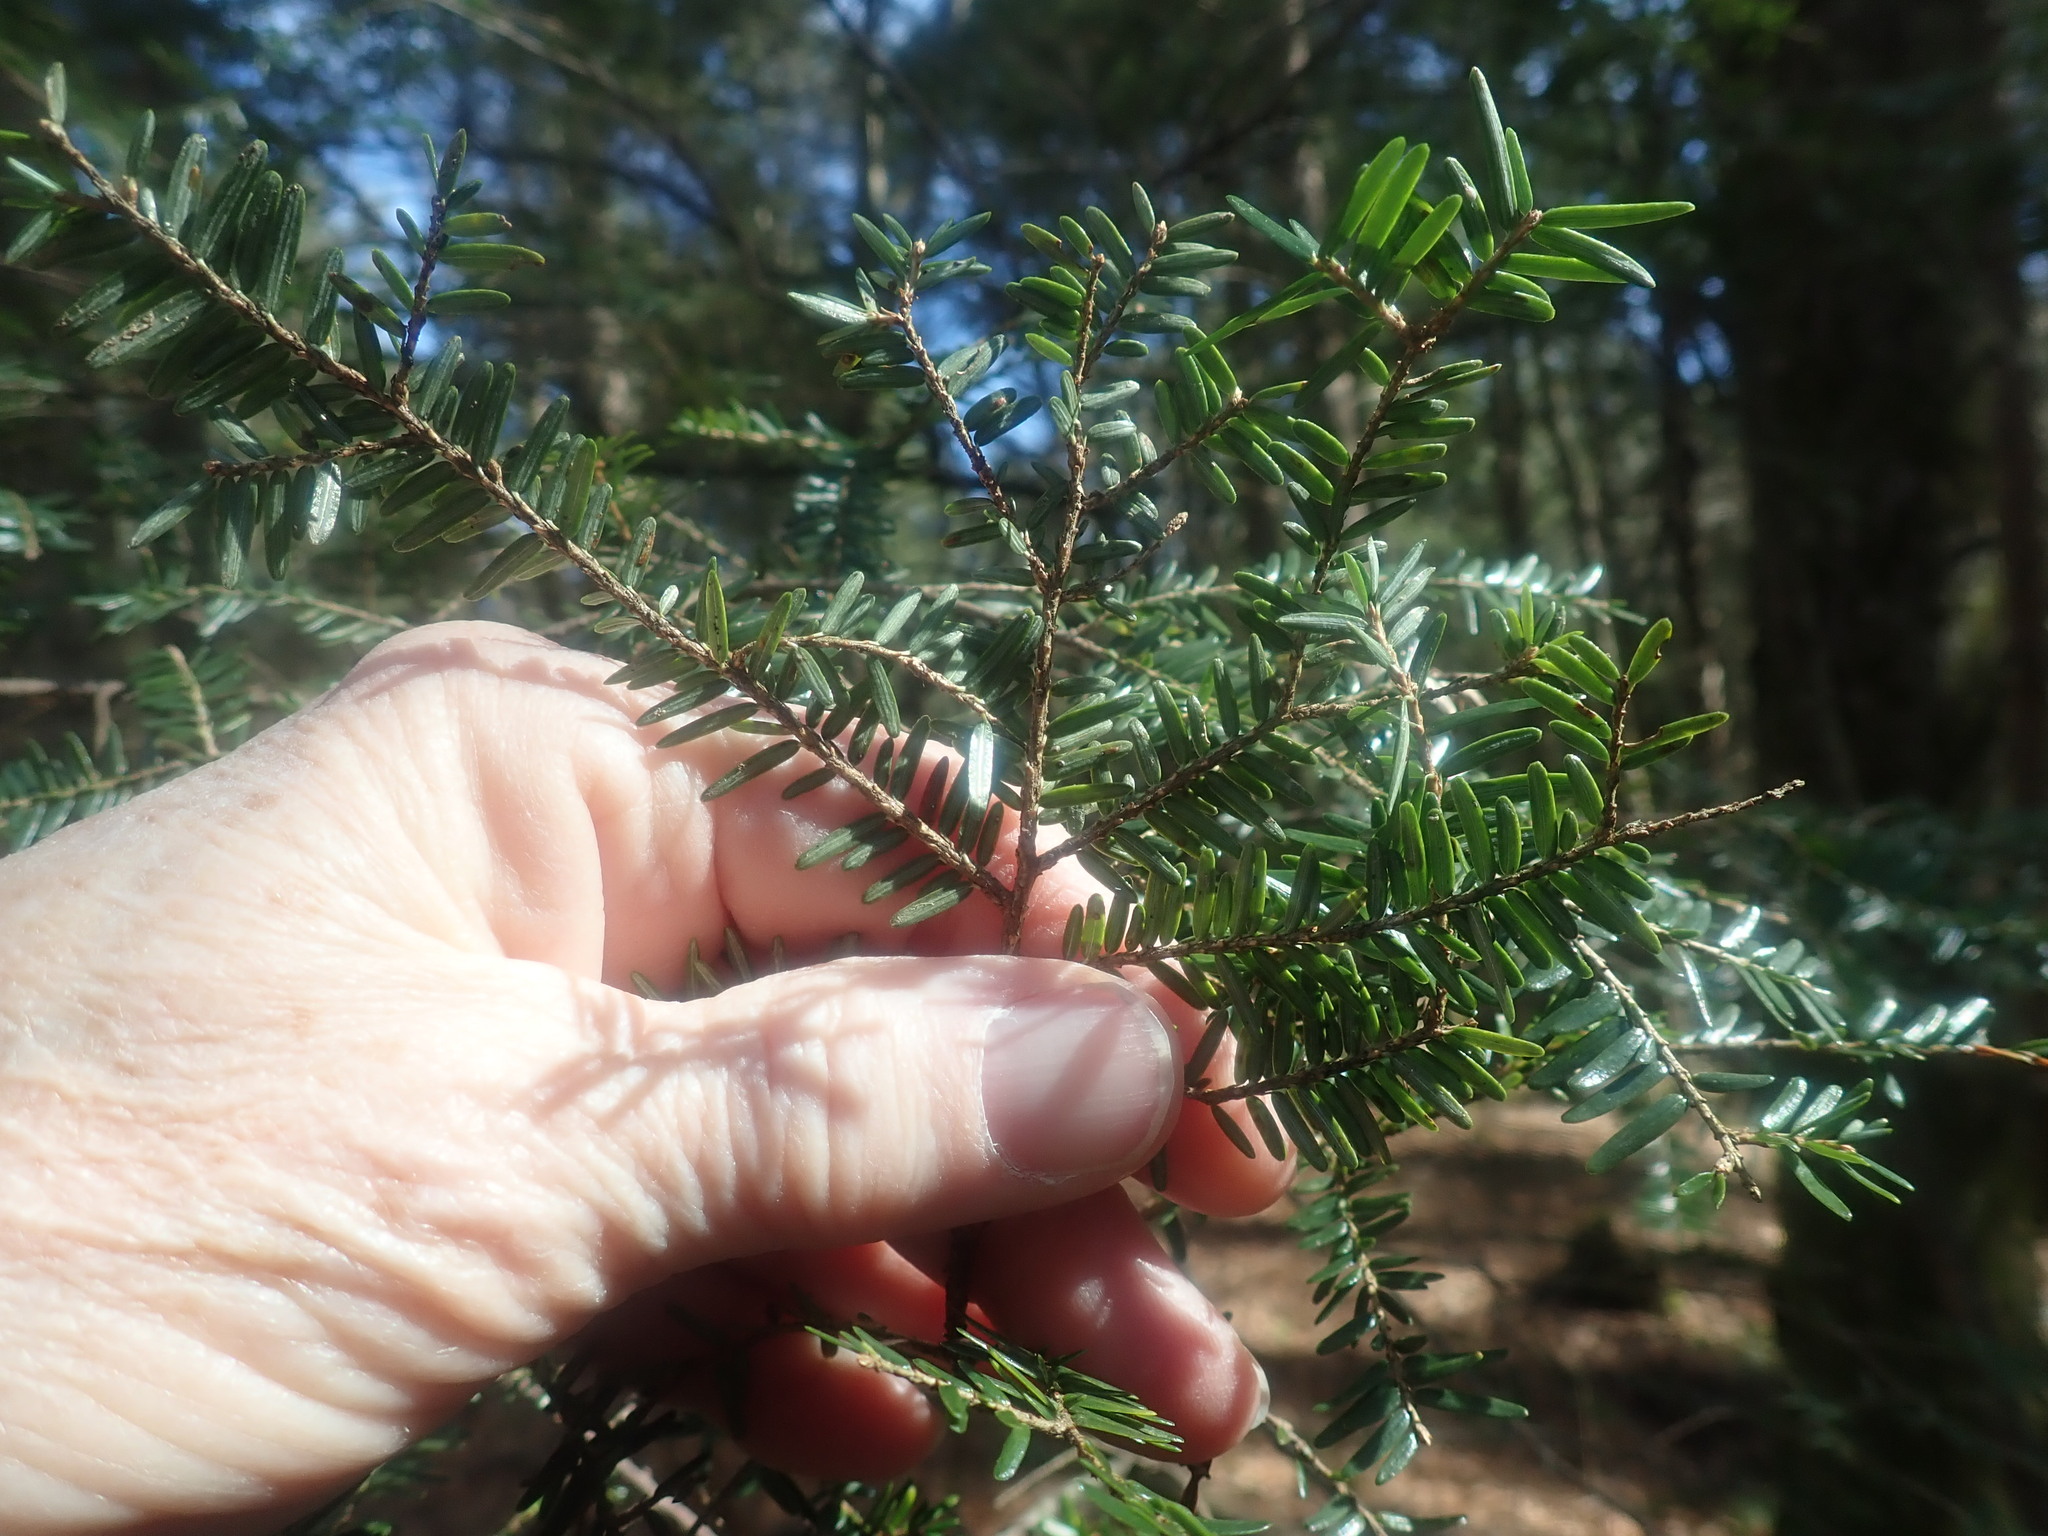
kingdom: Plantae
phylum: Tracheophyta
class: Pinopsida
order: Pinales
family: Pinaceae
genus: Tsuga
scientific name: Tsuga canadensis
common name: Eastern hemlock
